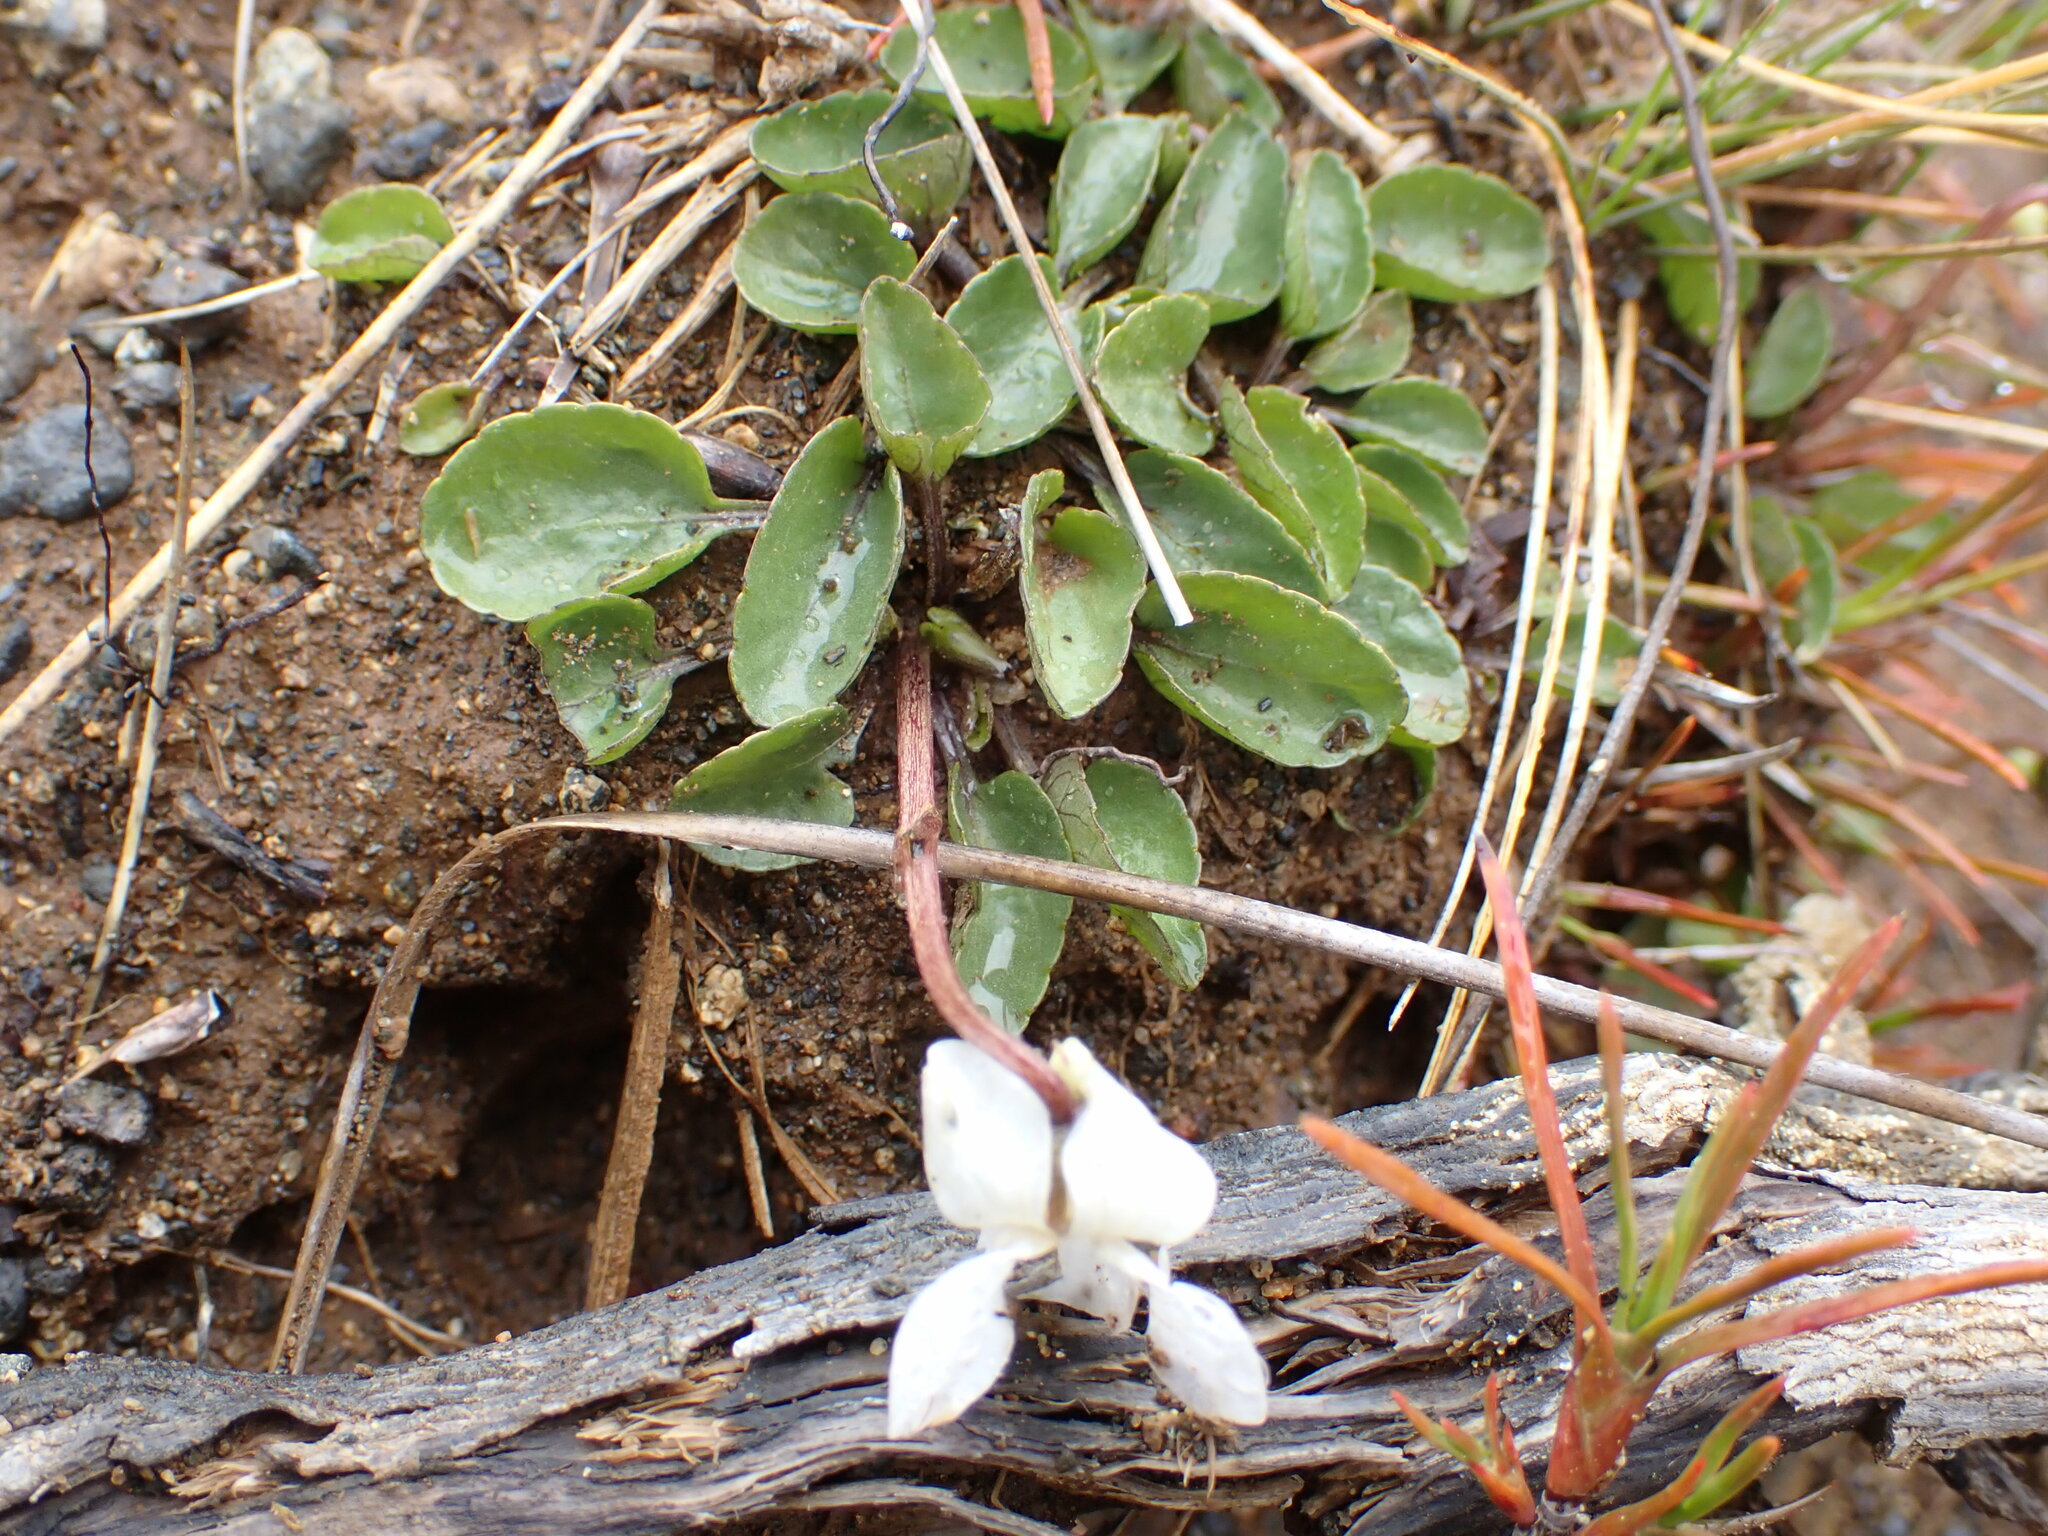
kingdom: Plantae
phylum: Tracheophyta
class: Magnoliopsida
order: Malpighiales
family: Violaceae
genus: Viola
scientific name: Viola cunninghamii
